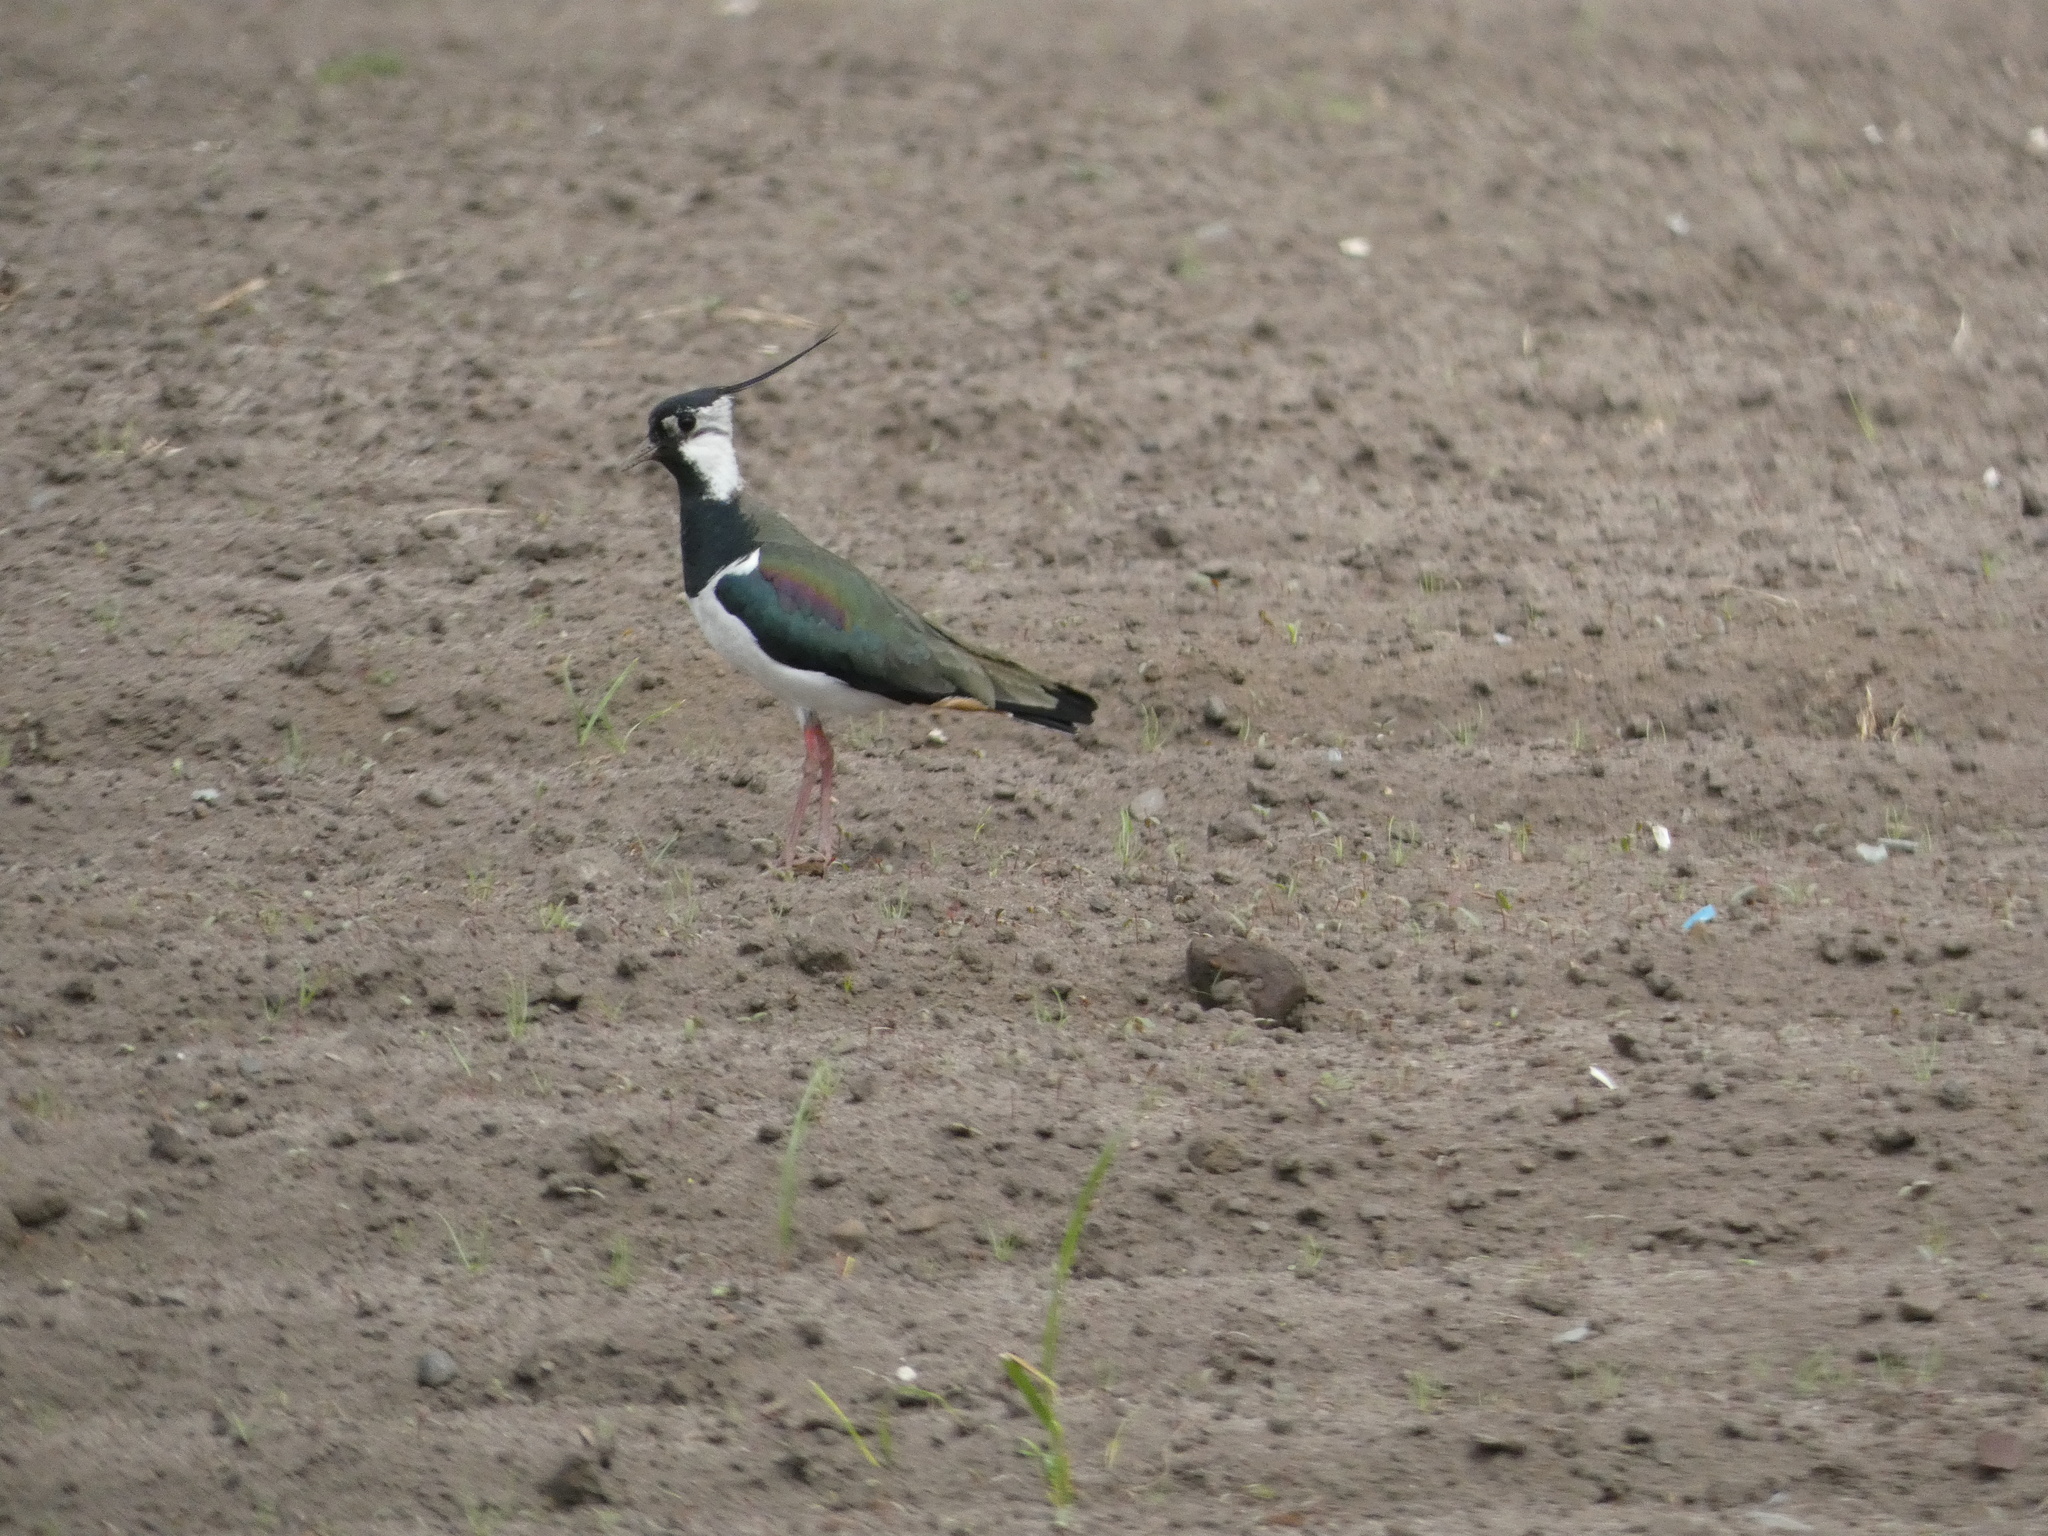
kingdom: Animalia
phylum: Chordata
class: Aves
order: Charadriiformes
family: Charadriidae
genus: Vanellus
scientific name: Vanellus vanellus
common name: Northern lapwing
